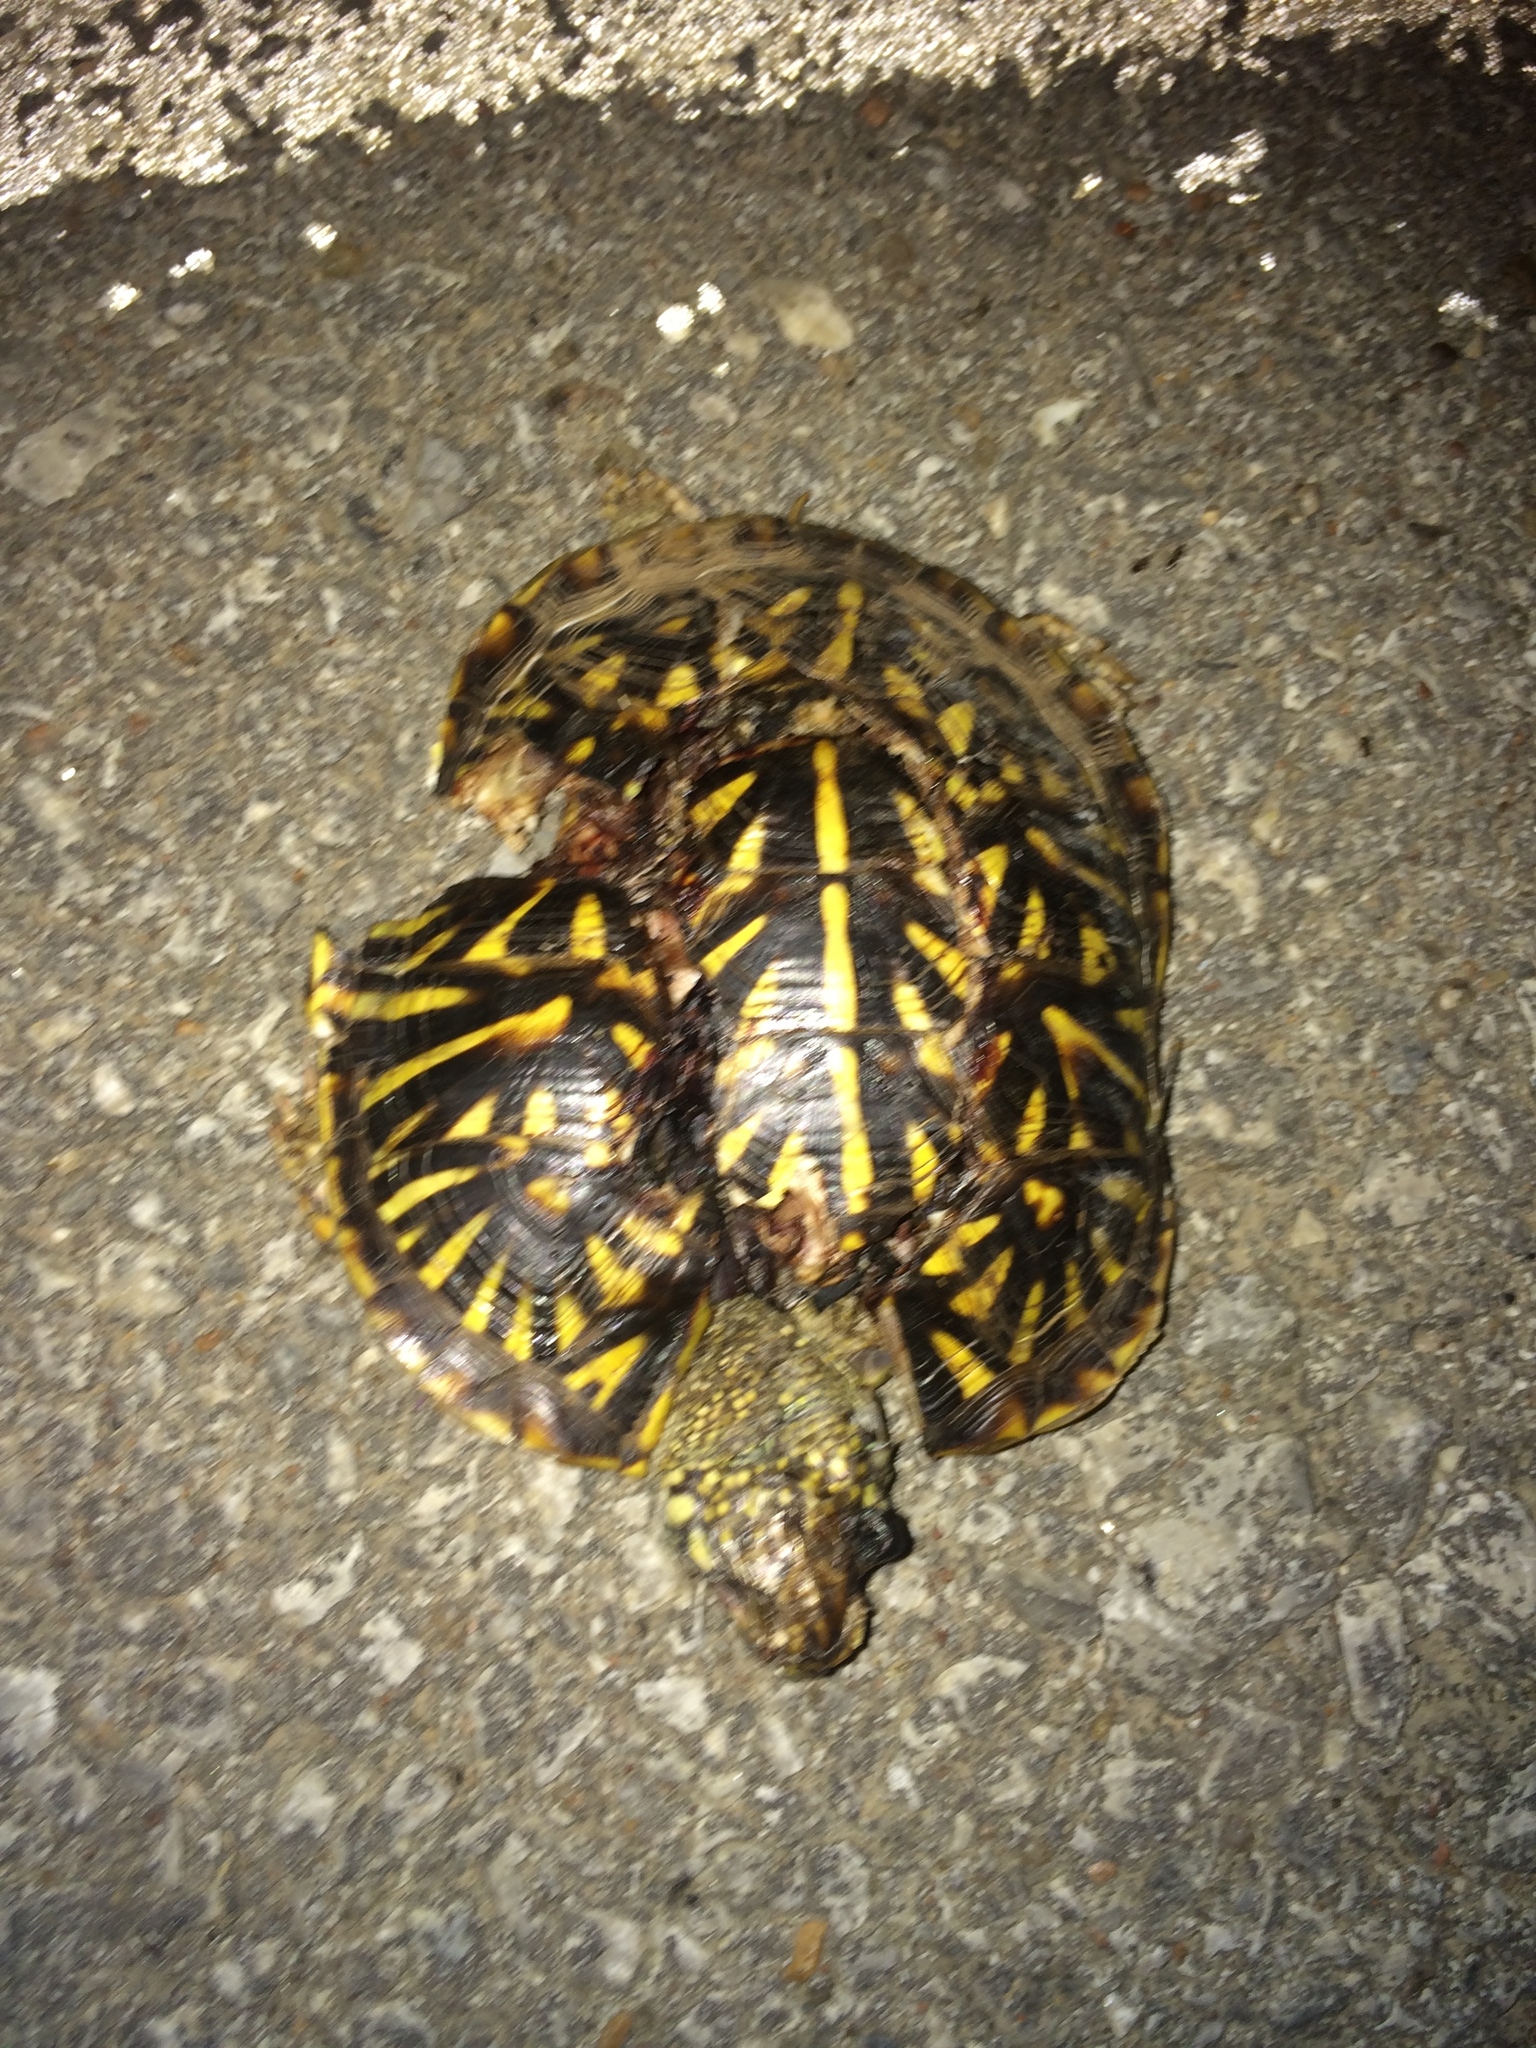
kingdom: Animalia
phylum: Chordata
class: Testudines
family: Emydidae
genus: Terrapene
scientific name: Terrapene ornata
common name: Western box turtle
